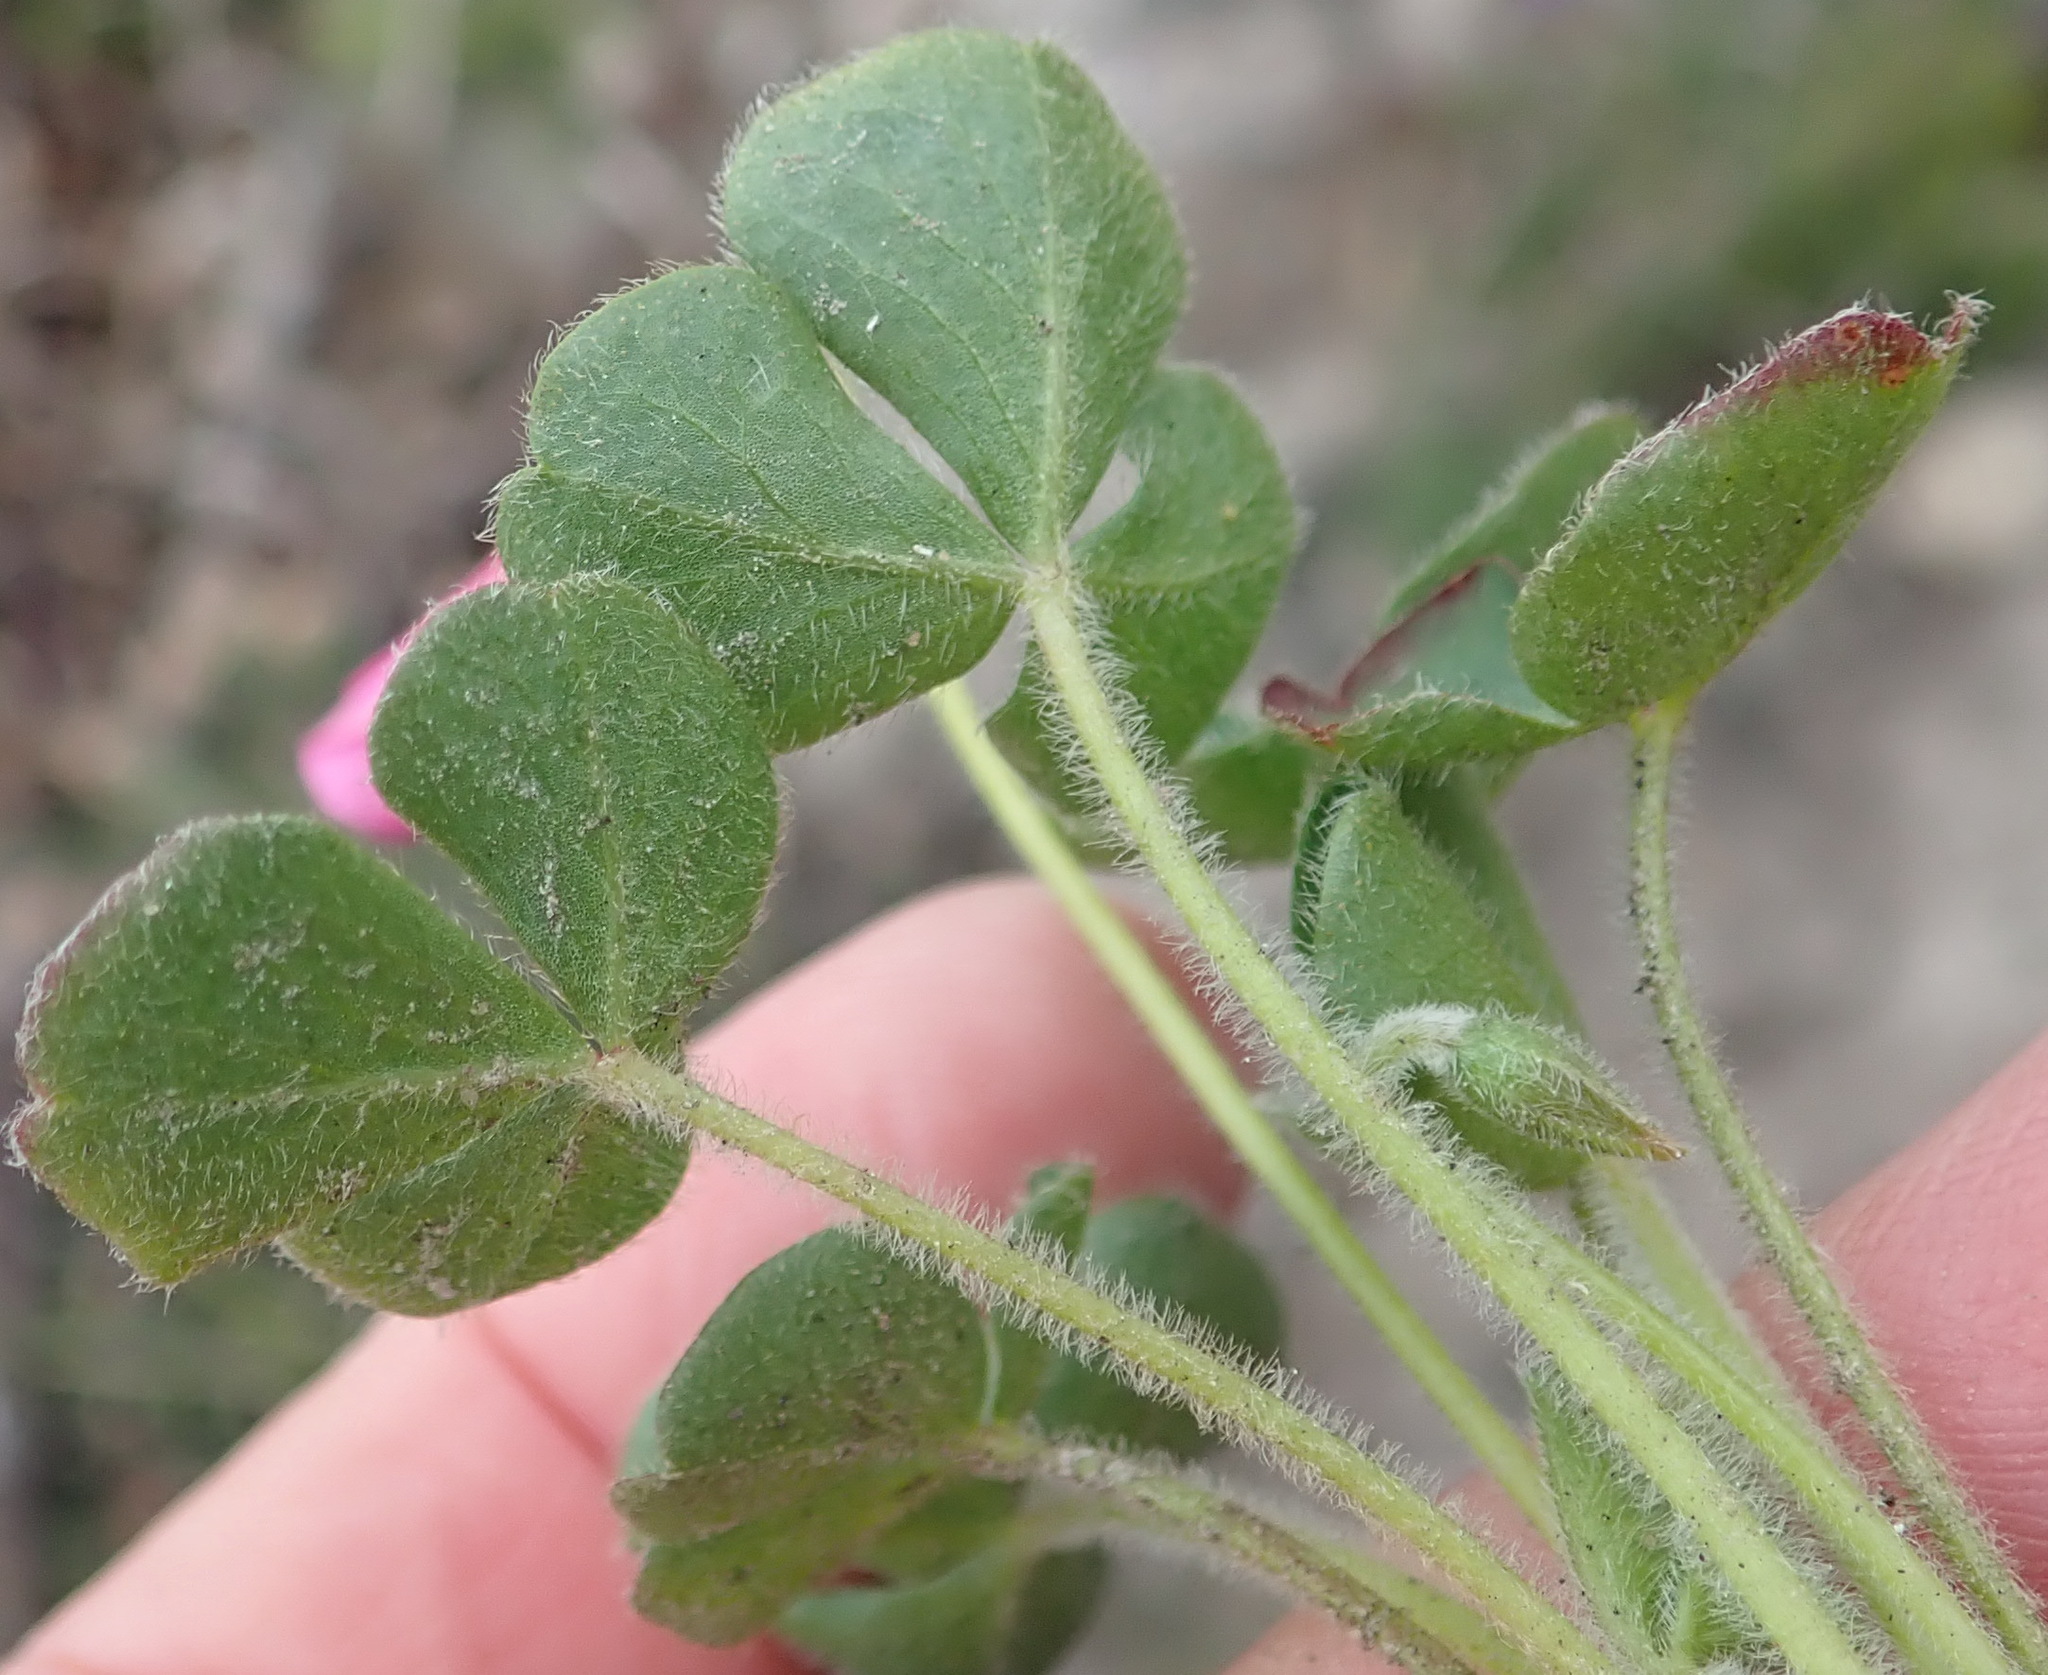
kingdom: Plantae
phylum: Tracheophyta
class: Magnoliopsida
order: Oxalidales
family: Oxalidaceae
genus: Oxalis
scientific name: Oxalis imbricata
